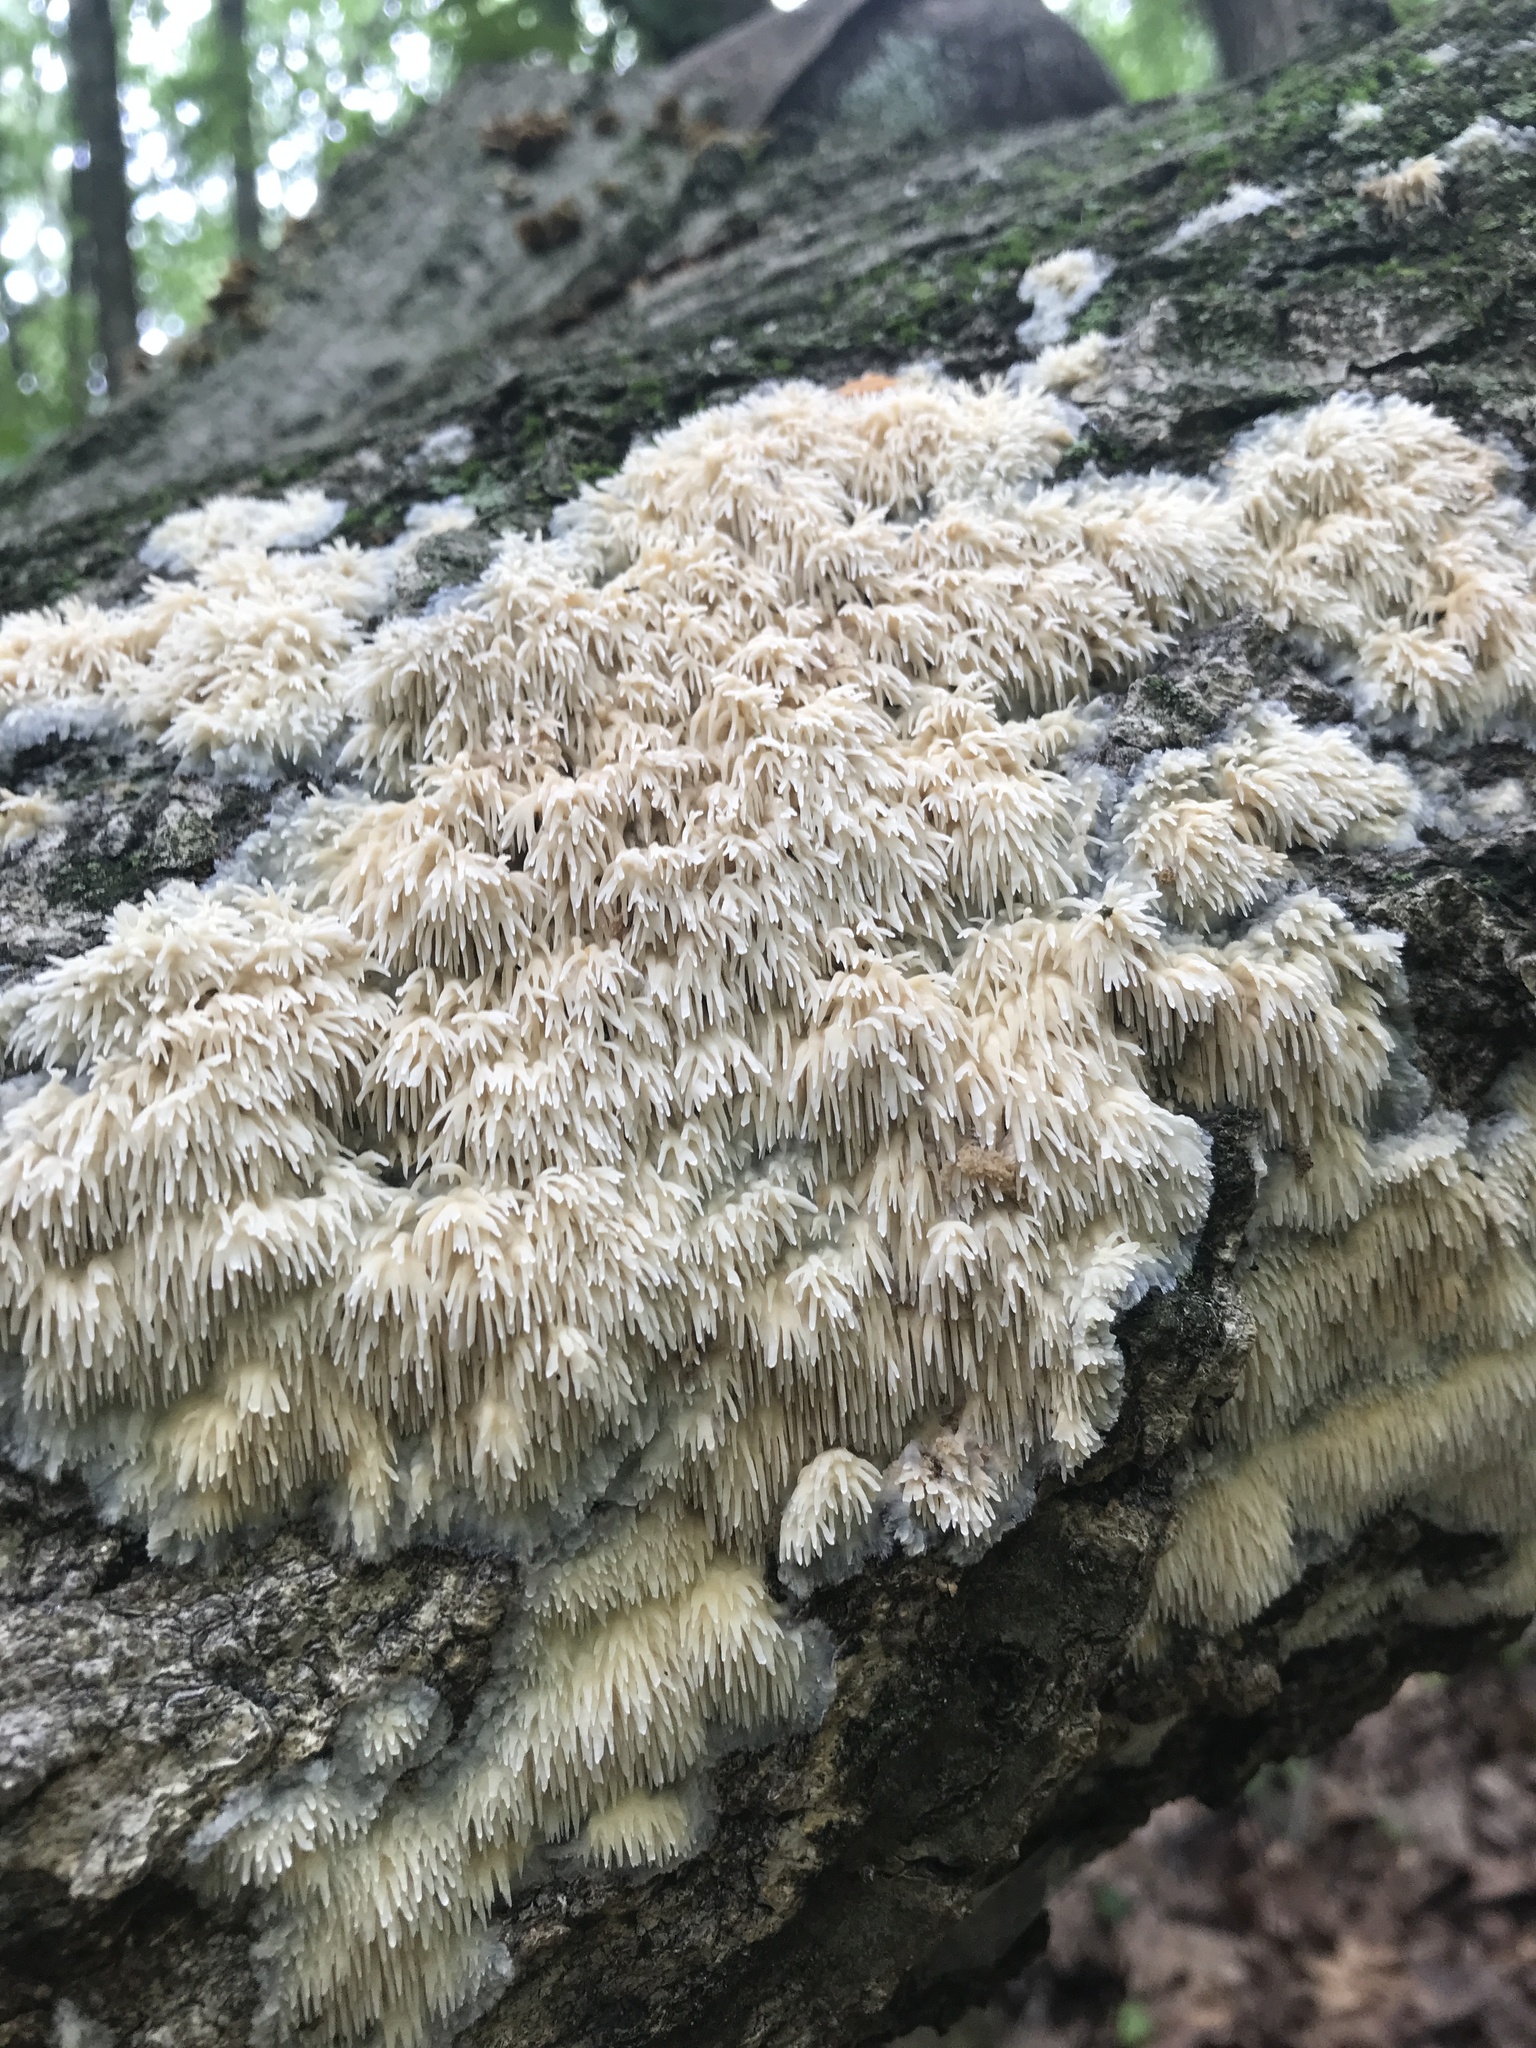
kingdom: Fungi
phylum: Basidiomycota
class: Agaricomycetes
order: Agaricales
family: Radulomycetaceae
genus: Radulomyces
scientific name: Radulomyces copelandii
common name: Asian beauty
